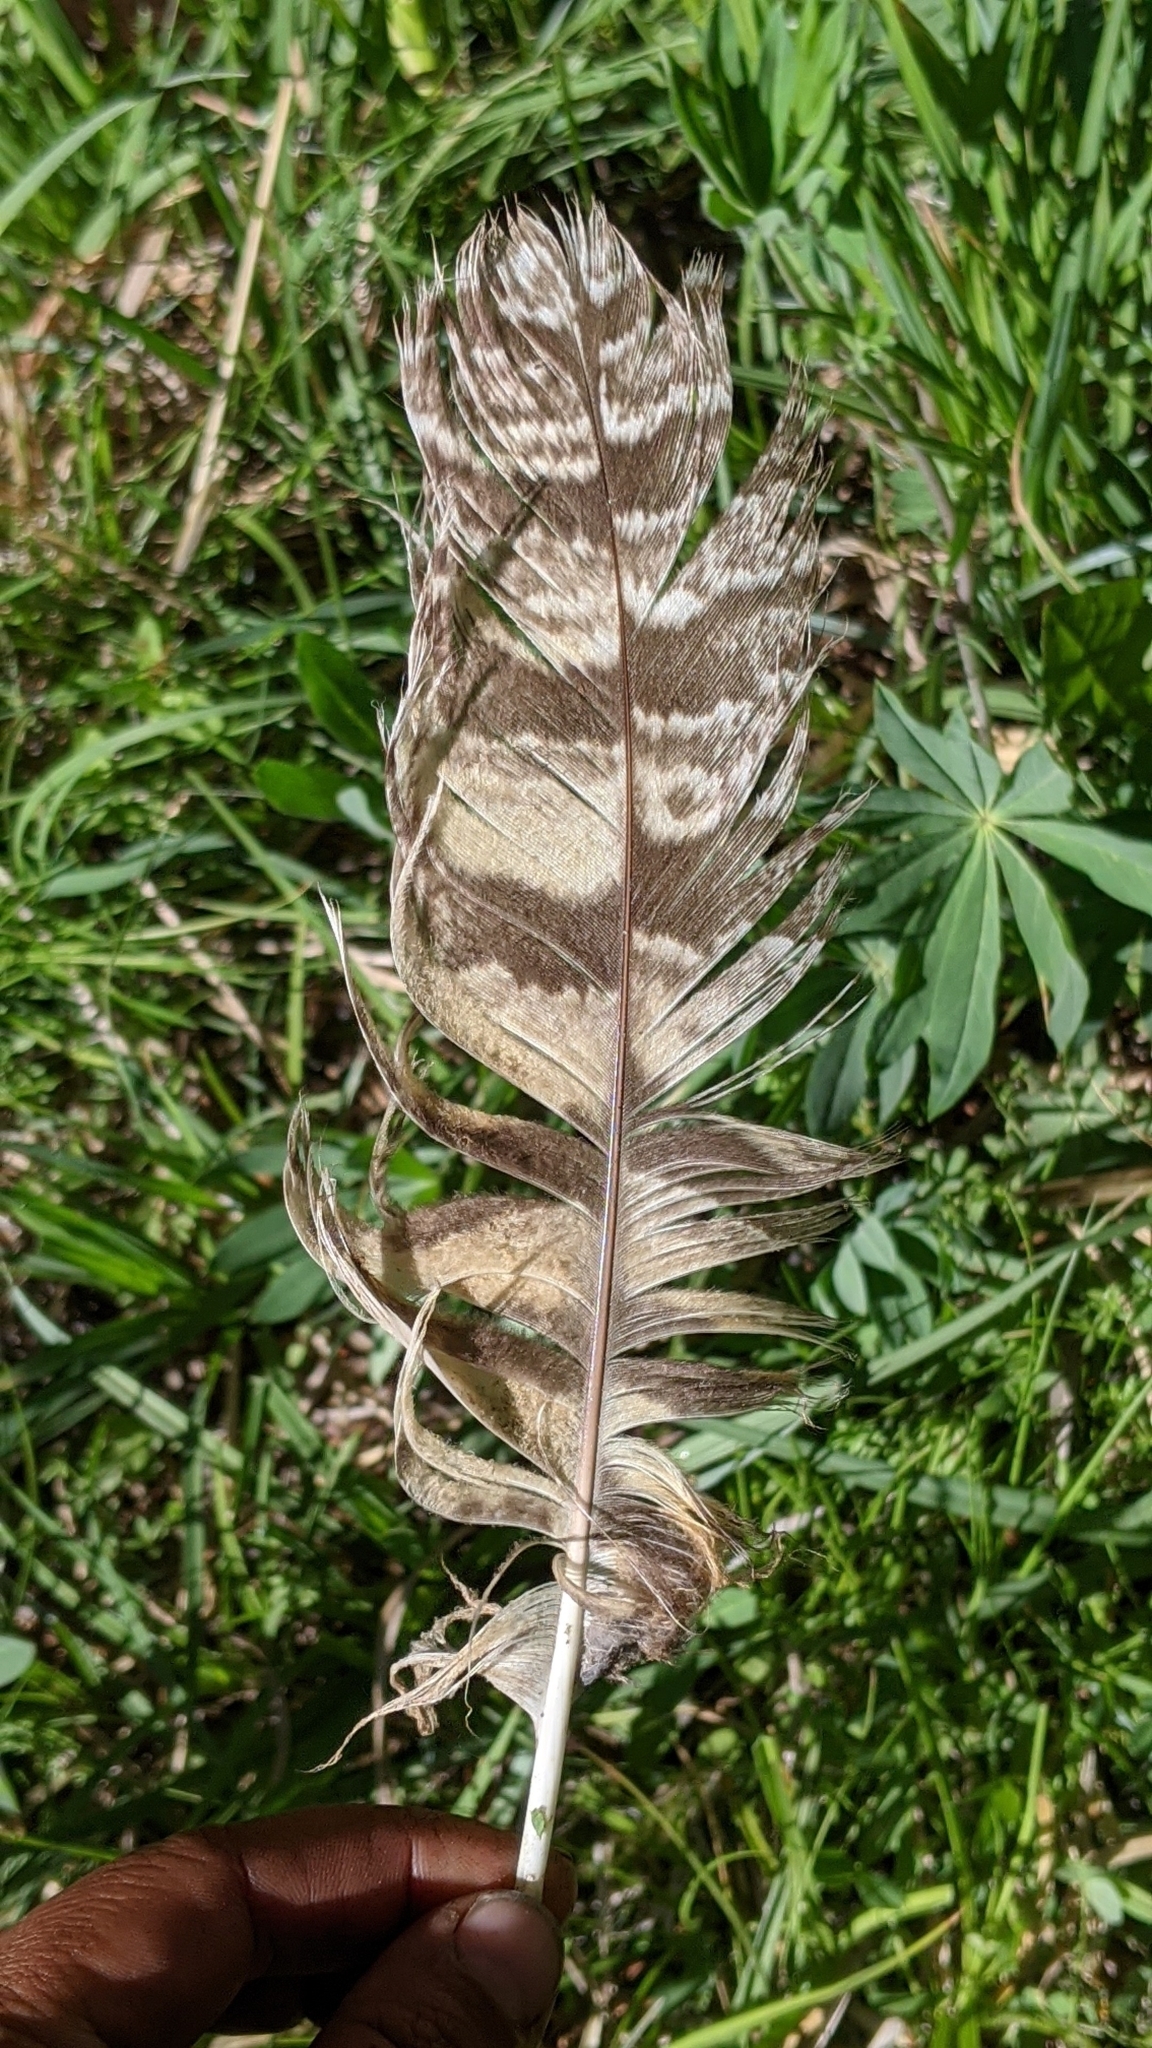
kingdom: Animalia
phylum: Chordata
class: Aves
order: Strigiformes
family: Strigidae
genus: Bubo
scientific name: Bubo virginianus
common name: Great horned owl
